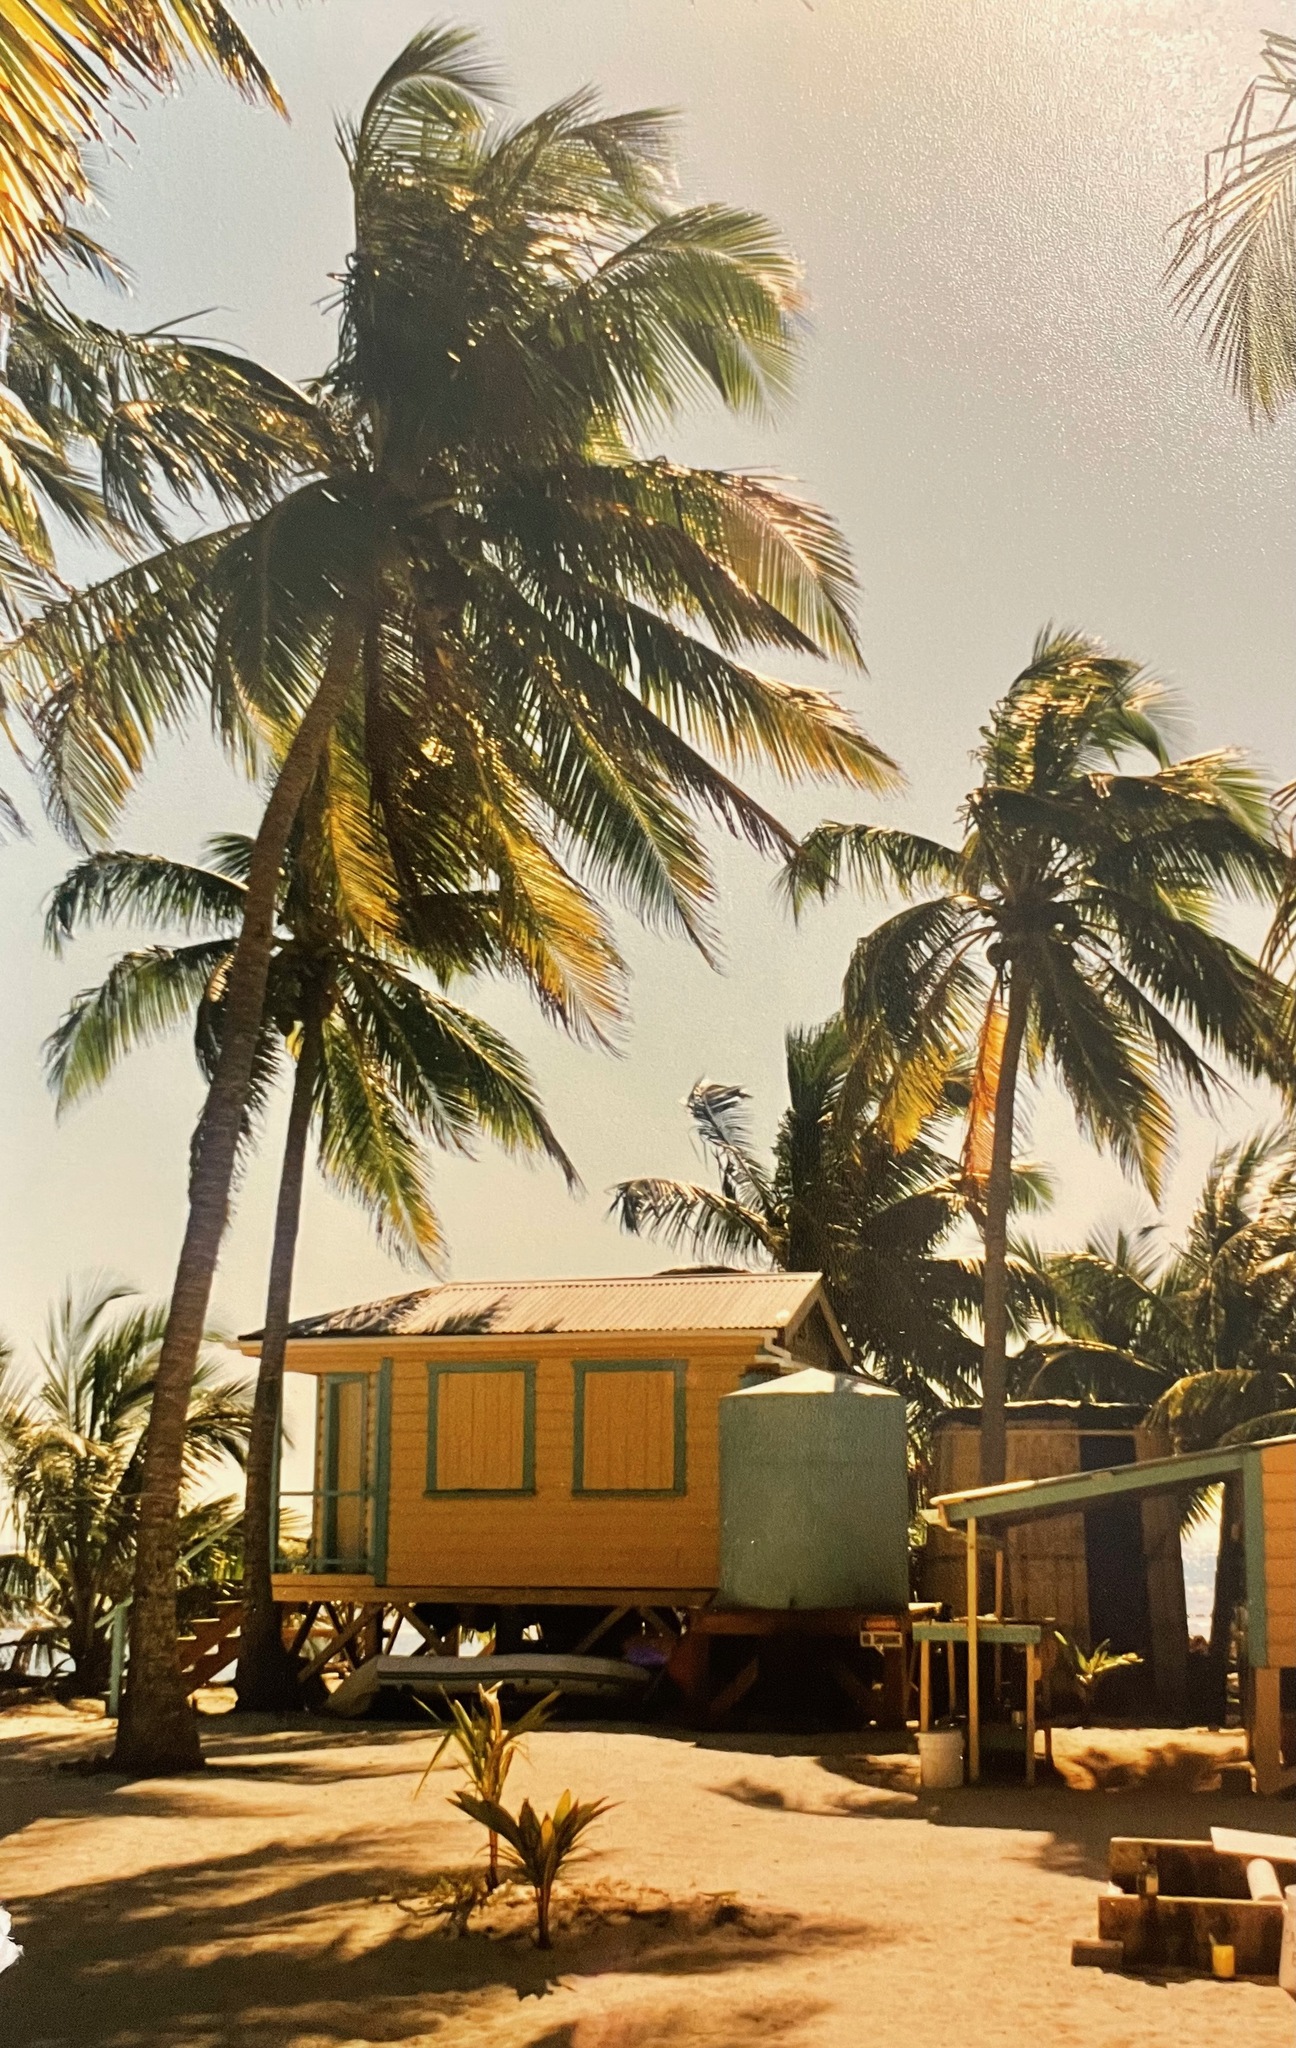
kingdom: Plantae
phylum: Tracheophyta
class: Liliopsida
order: Arecales
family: Arecaceae
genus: Cocos
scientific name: Cocos nucifera
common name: Coconut palm
